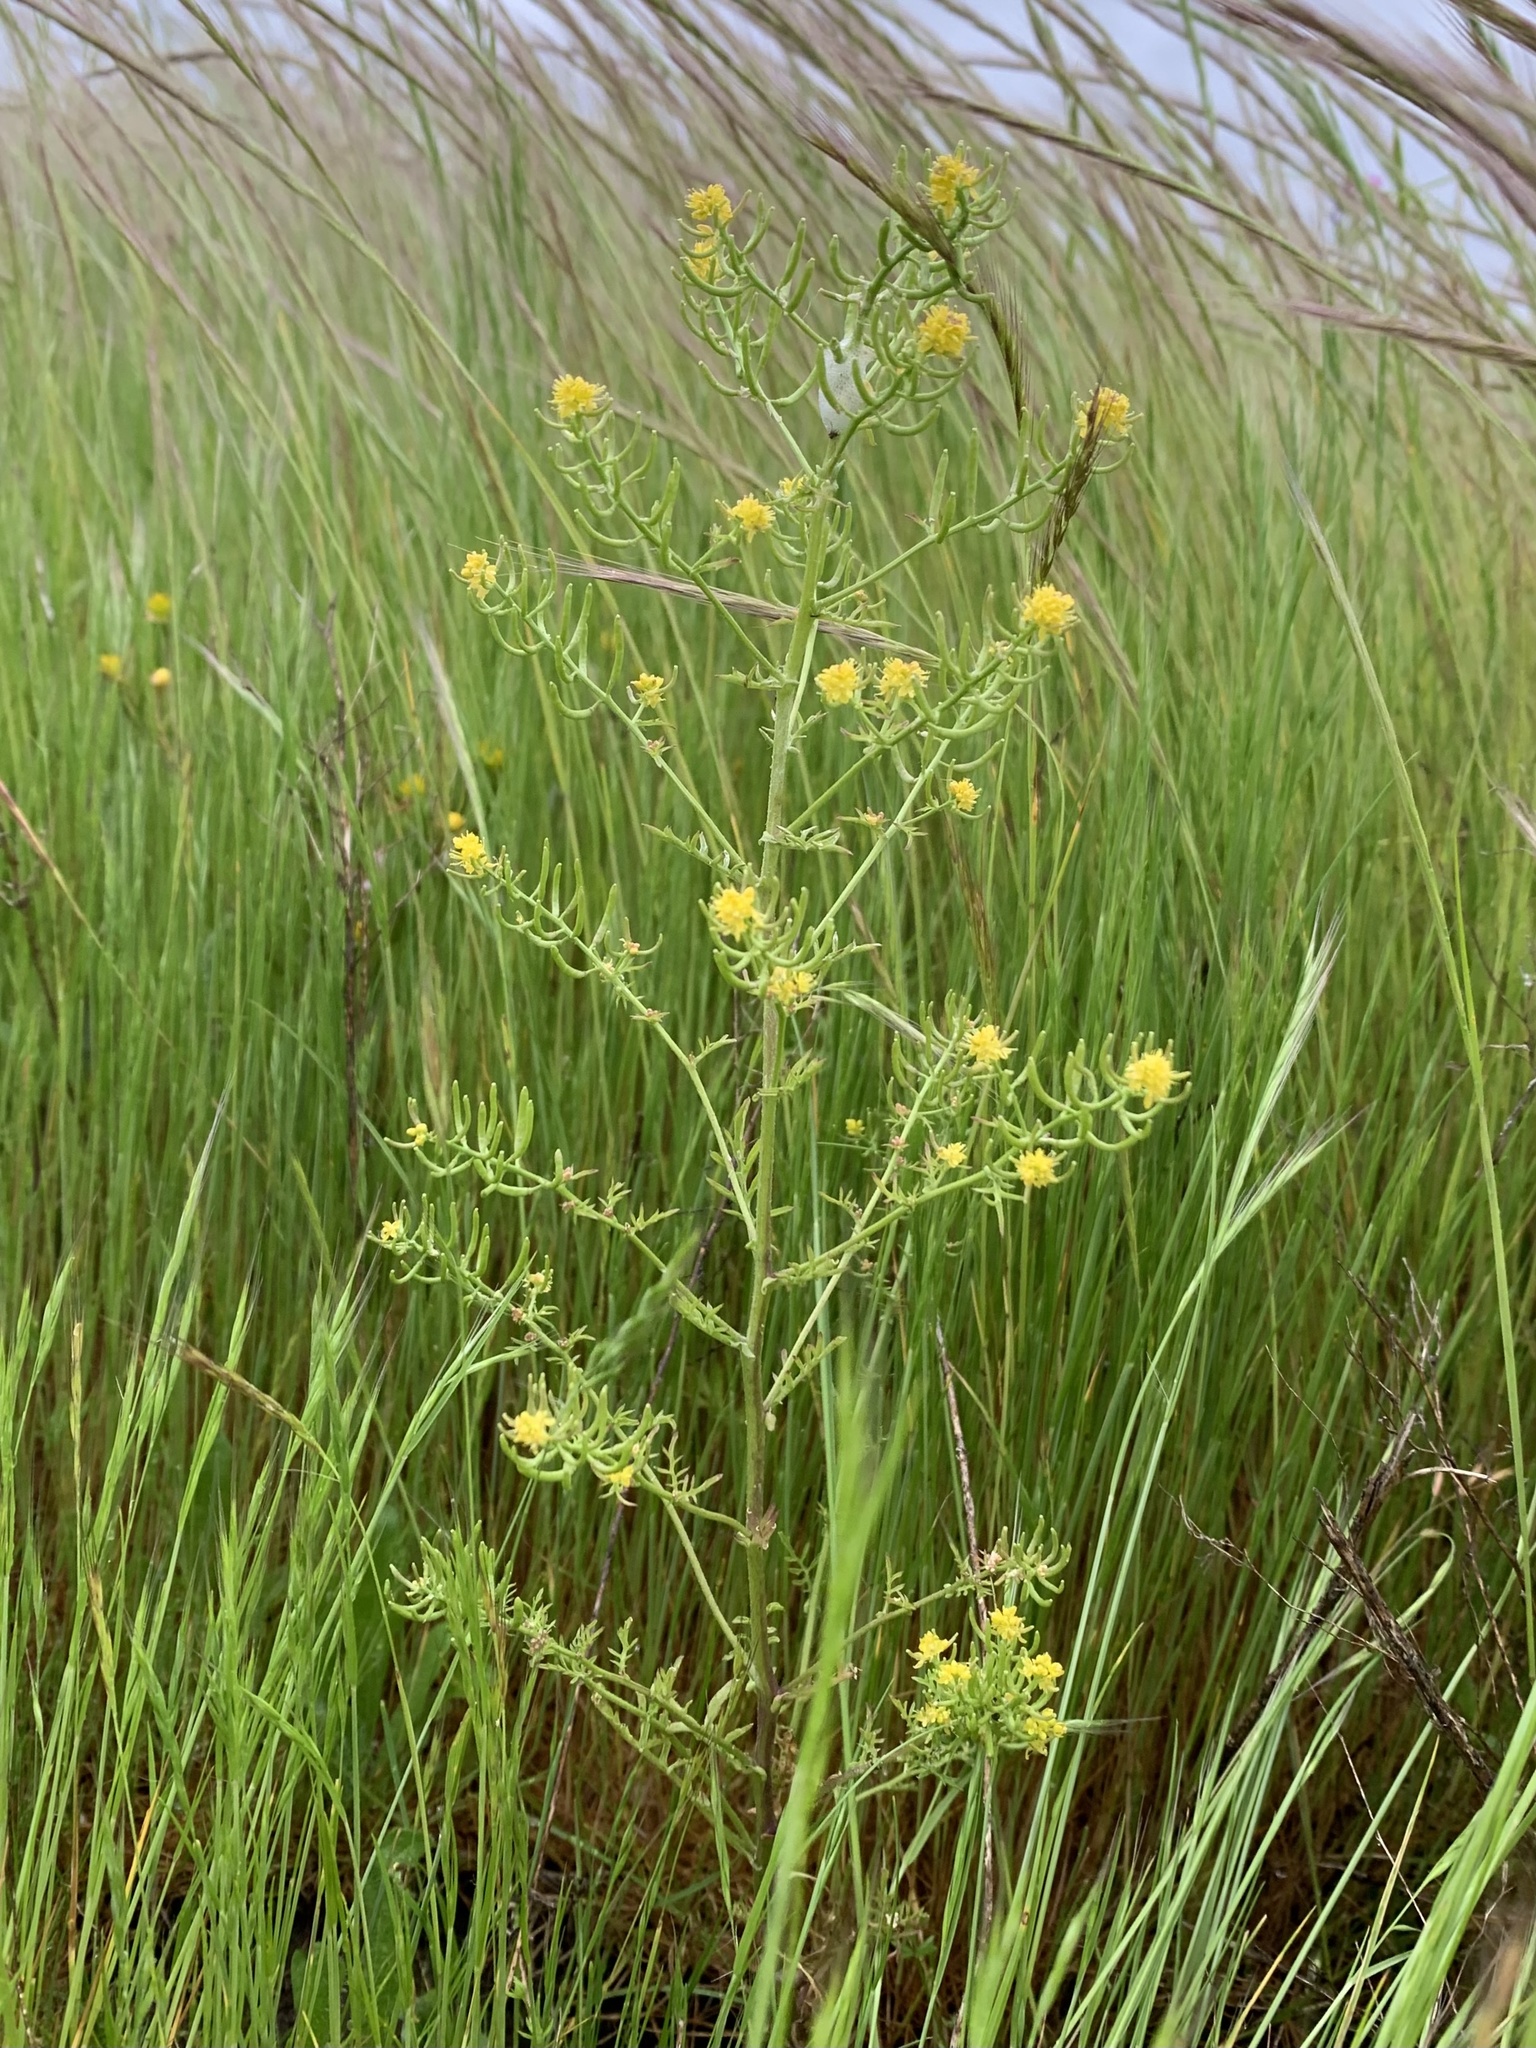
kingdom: Plantae
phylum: Tracheophyta
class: Magnoliopsida
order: Brassicales
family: Brassicaceae
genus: Rorippa
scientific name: Rorippa curvisiliqua
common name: Curve-pod yellow cress
